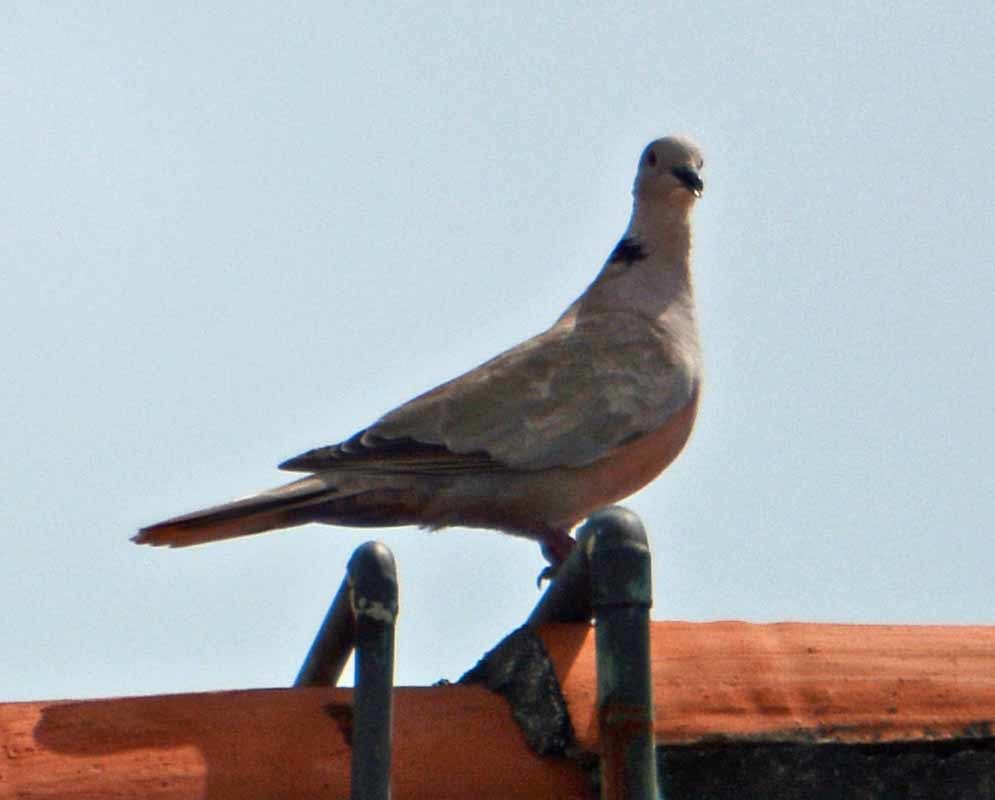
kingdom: Animalia
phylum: Chordata
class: Aves
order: Columbiformes
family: Columbidae
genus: Streptopelia
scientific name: Streptopelia decaocto
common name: Eurasian collared dove
